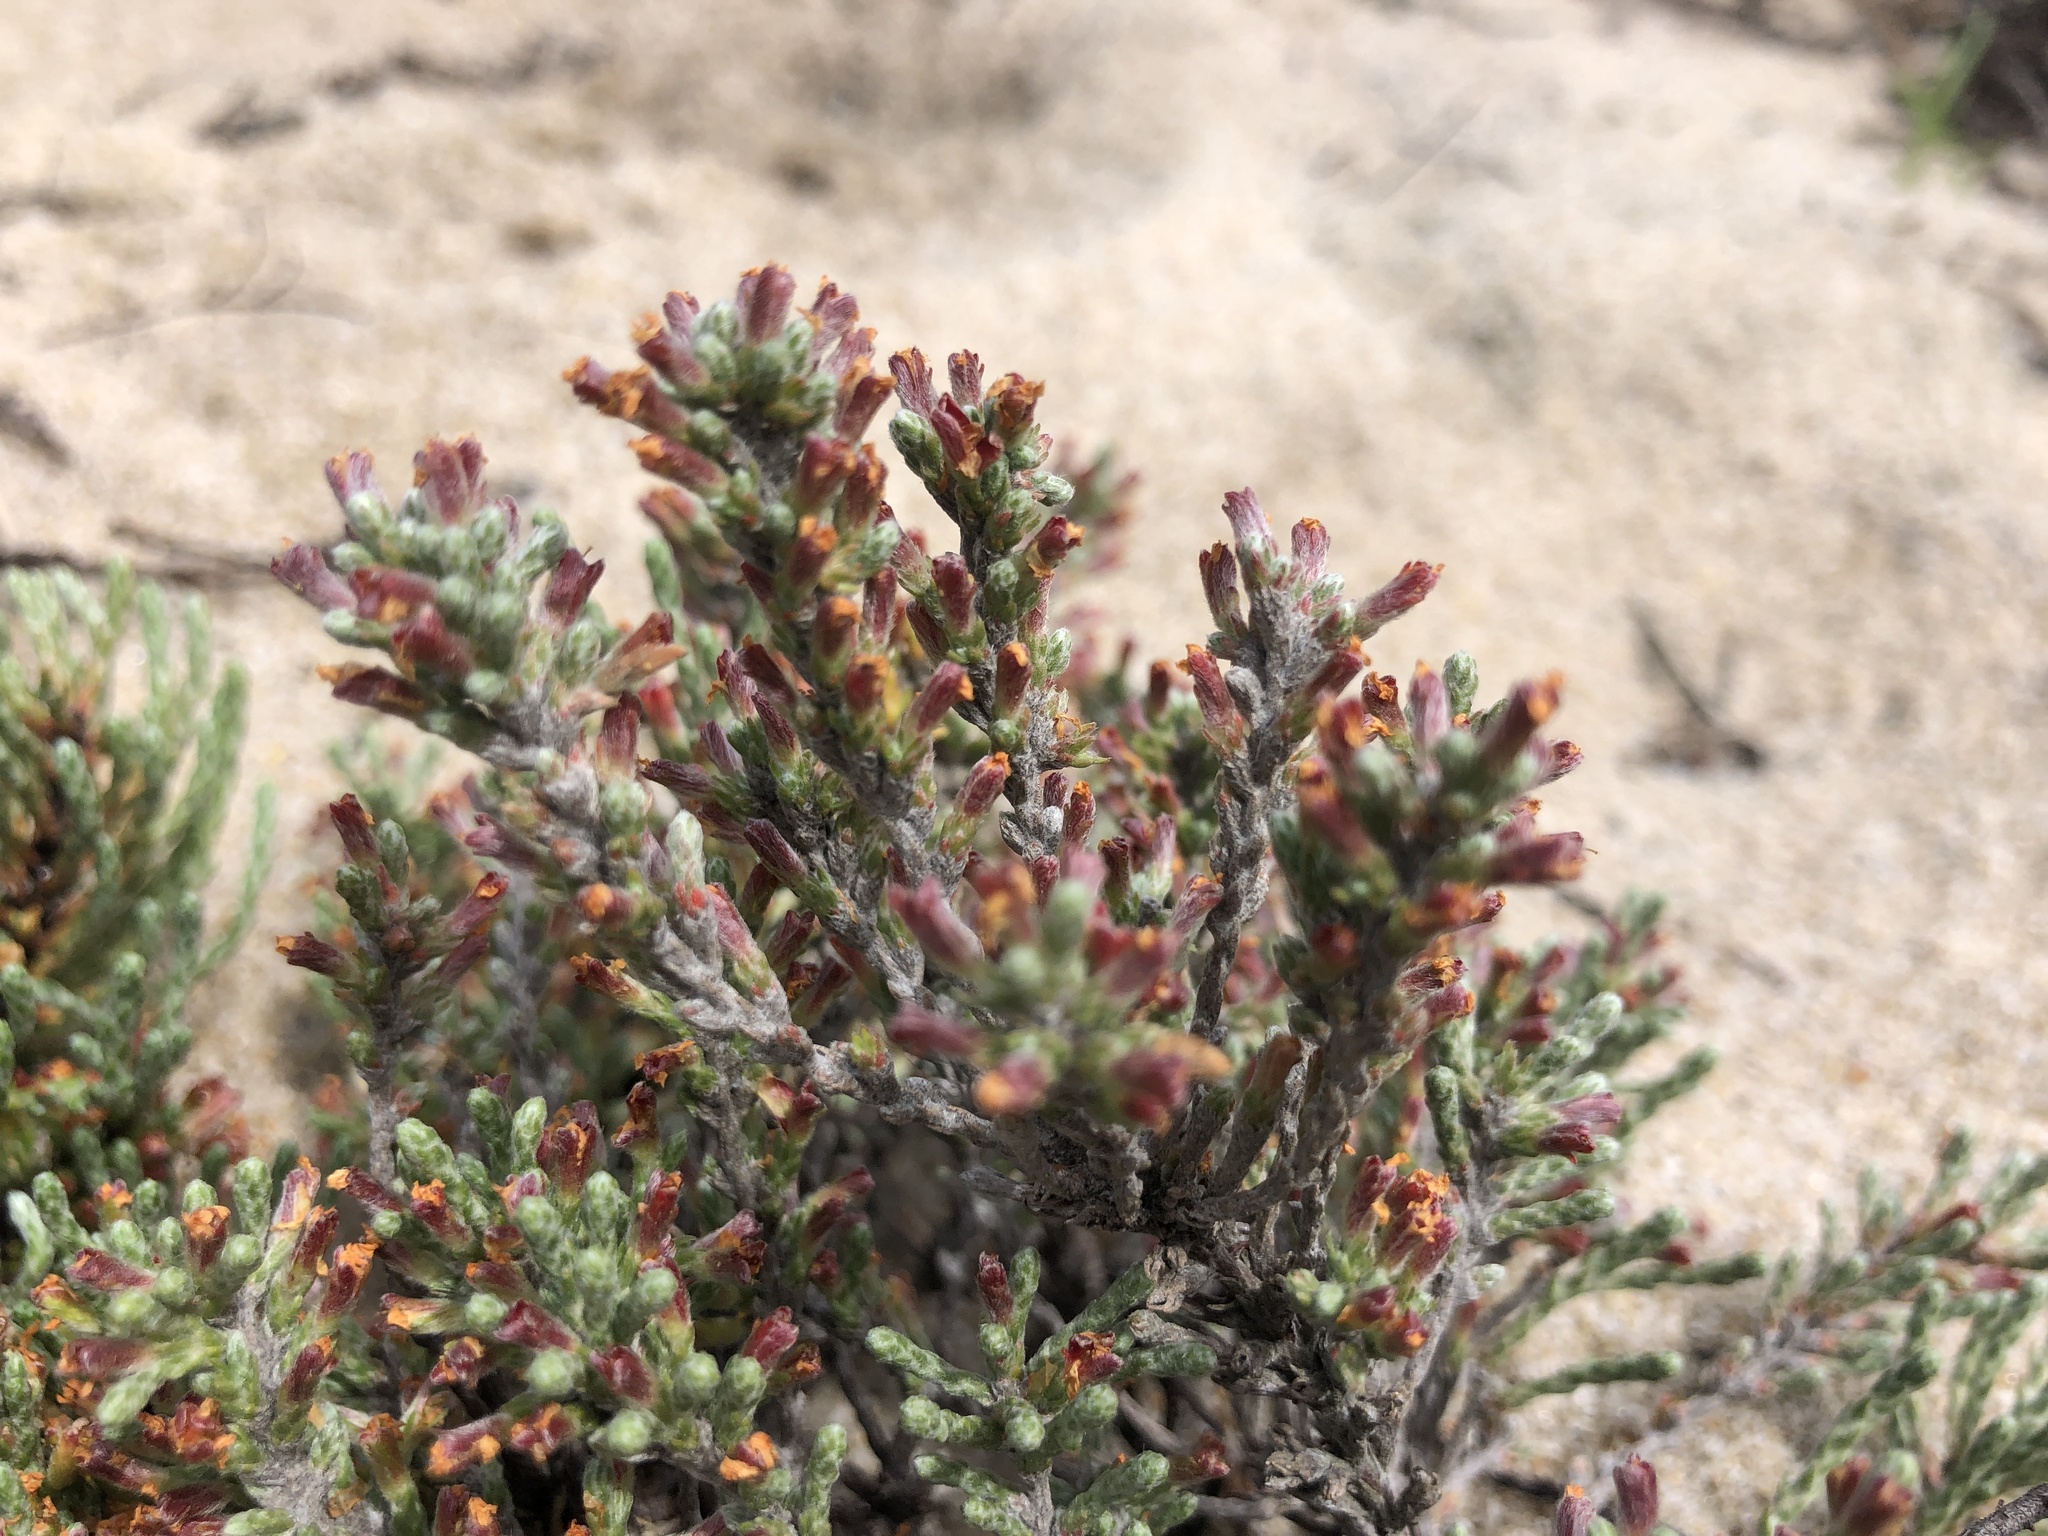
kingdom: Plantae
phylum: Tracheophyta
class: Magnoliopsida
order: Malvales
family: Cistaceae
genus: Hudsonia
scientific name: Hudsonia tomentosa
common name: Beach-heath
